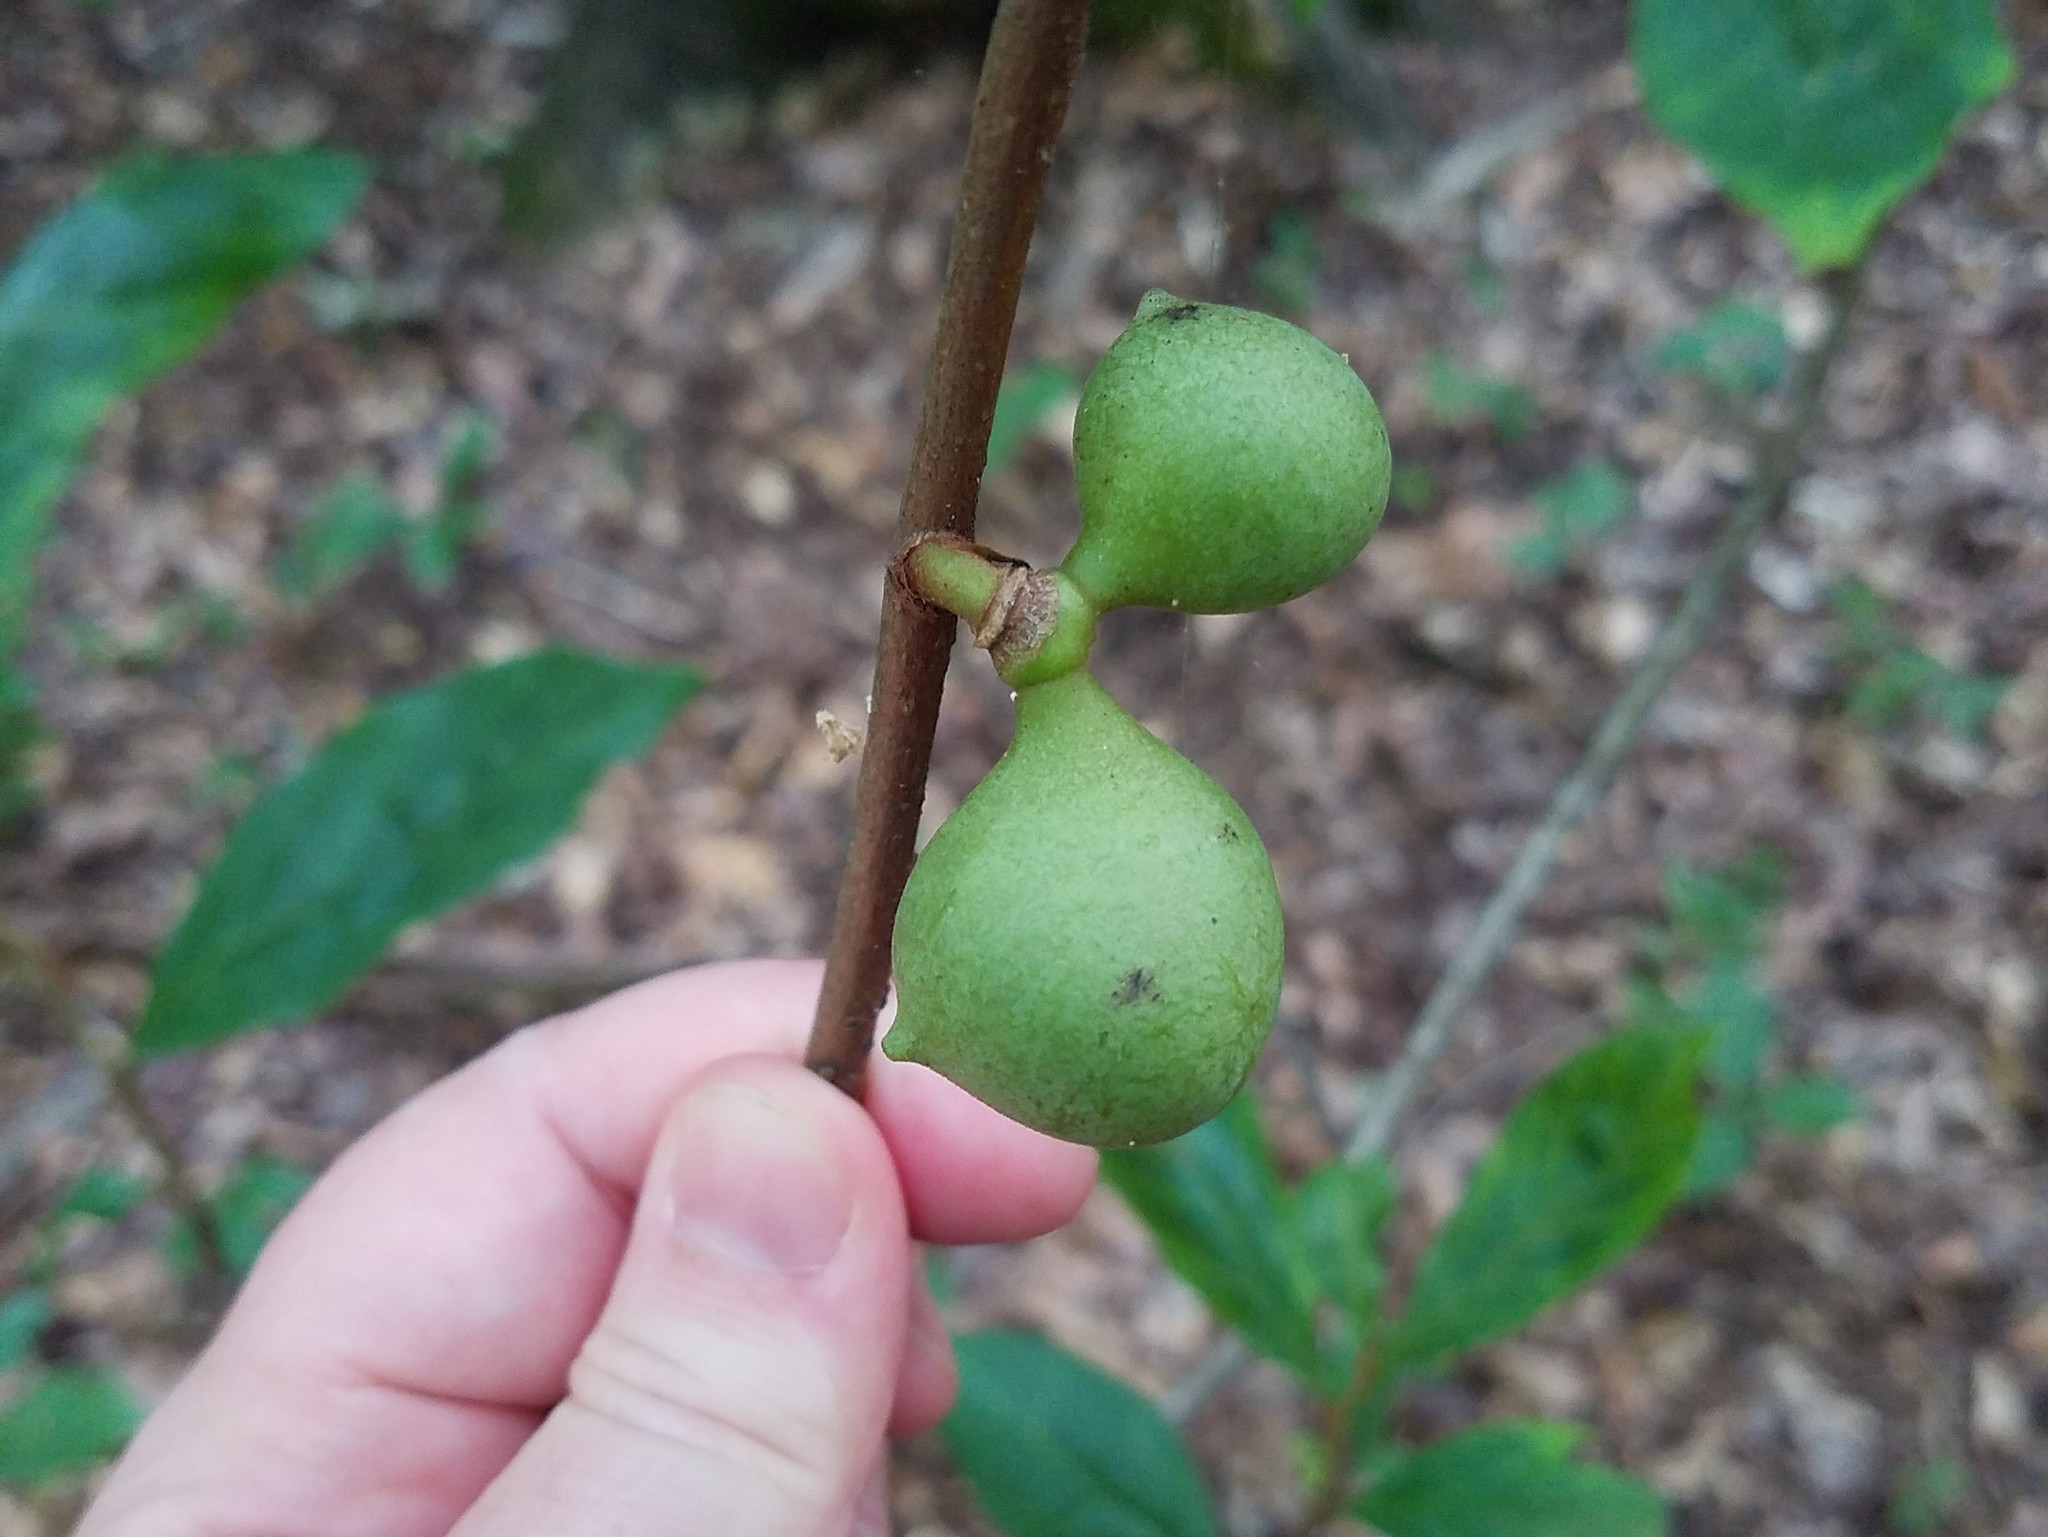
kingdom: Plantae
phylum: Tracheophyta
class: Magnoliopsida
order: Magnoliales
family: Annonaceae
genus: Asimina
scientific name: Asimina parviflora
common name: Dwarf pawpaw
